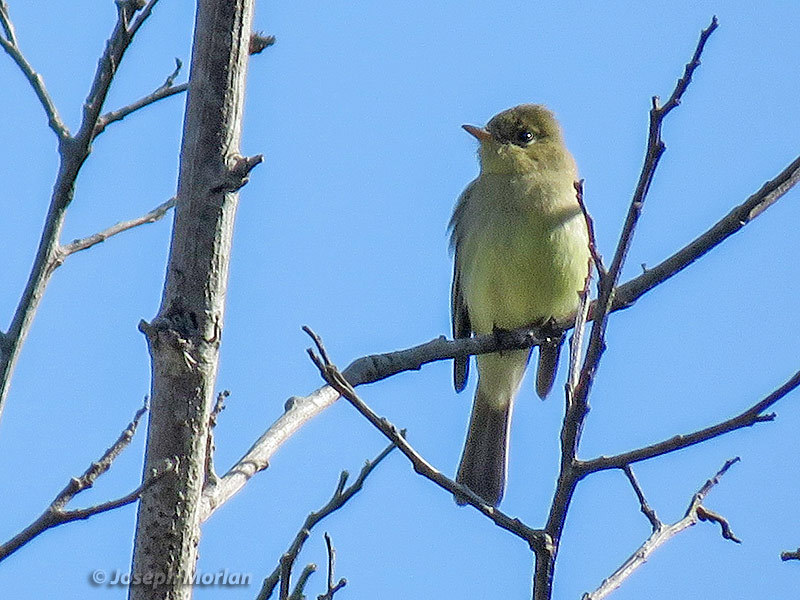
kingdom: Animalia
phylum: Chordata
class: Aves
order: Passeriformes
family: Tyrannidae
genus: Empidonax
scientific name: Empidonax difficilis
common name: Pacific-slope flycatcher
